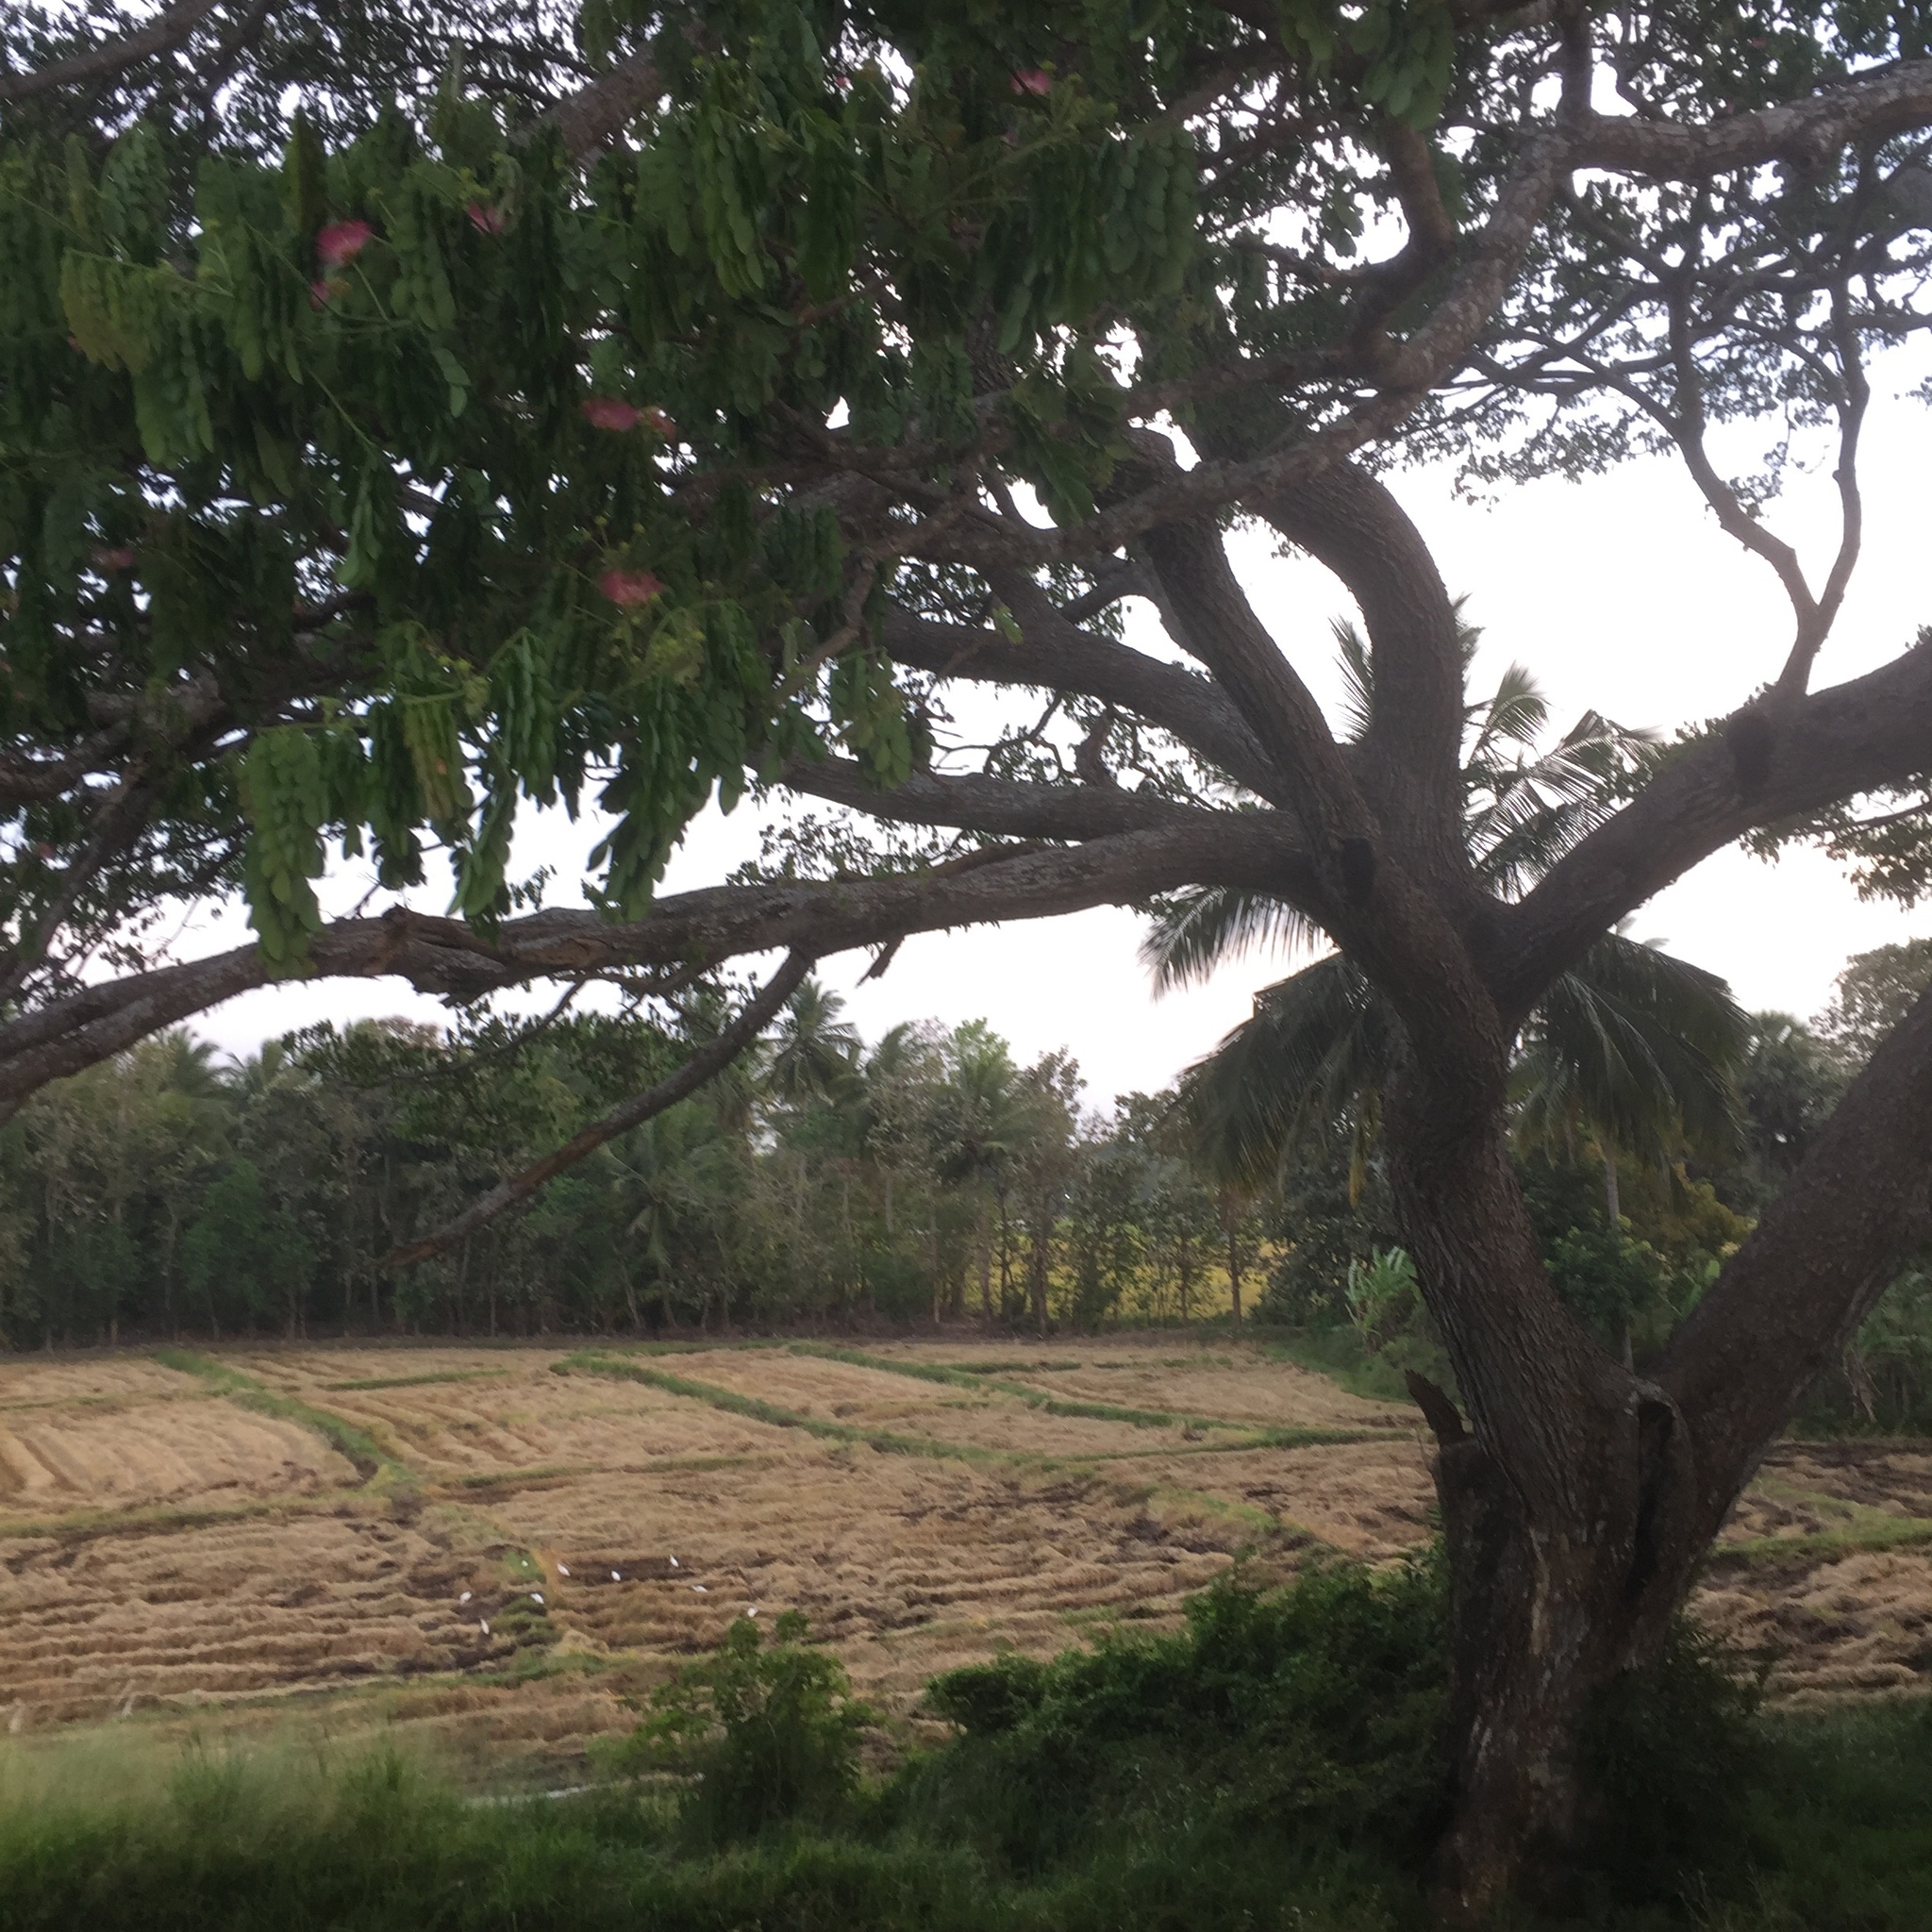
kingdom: Plantae
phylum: Tracheophyta
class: Magnoliopsida
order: Fabales
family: Fabaceae
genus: Samanea
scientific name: Samanea saman
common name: Raintree
